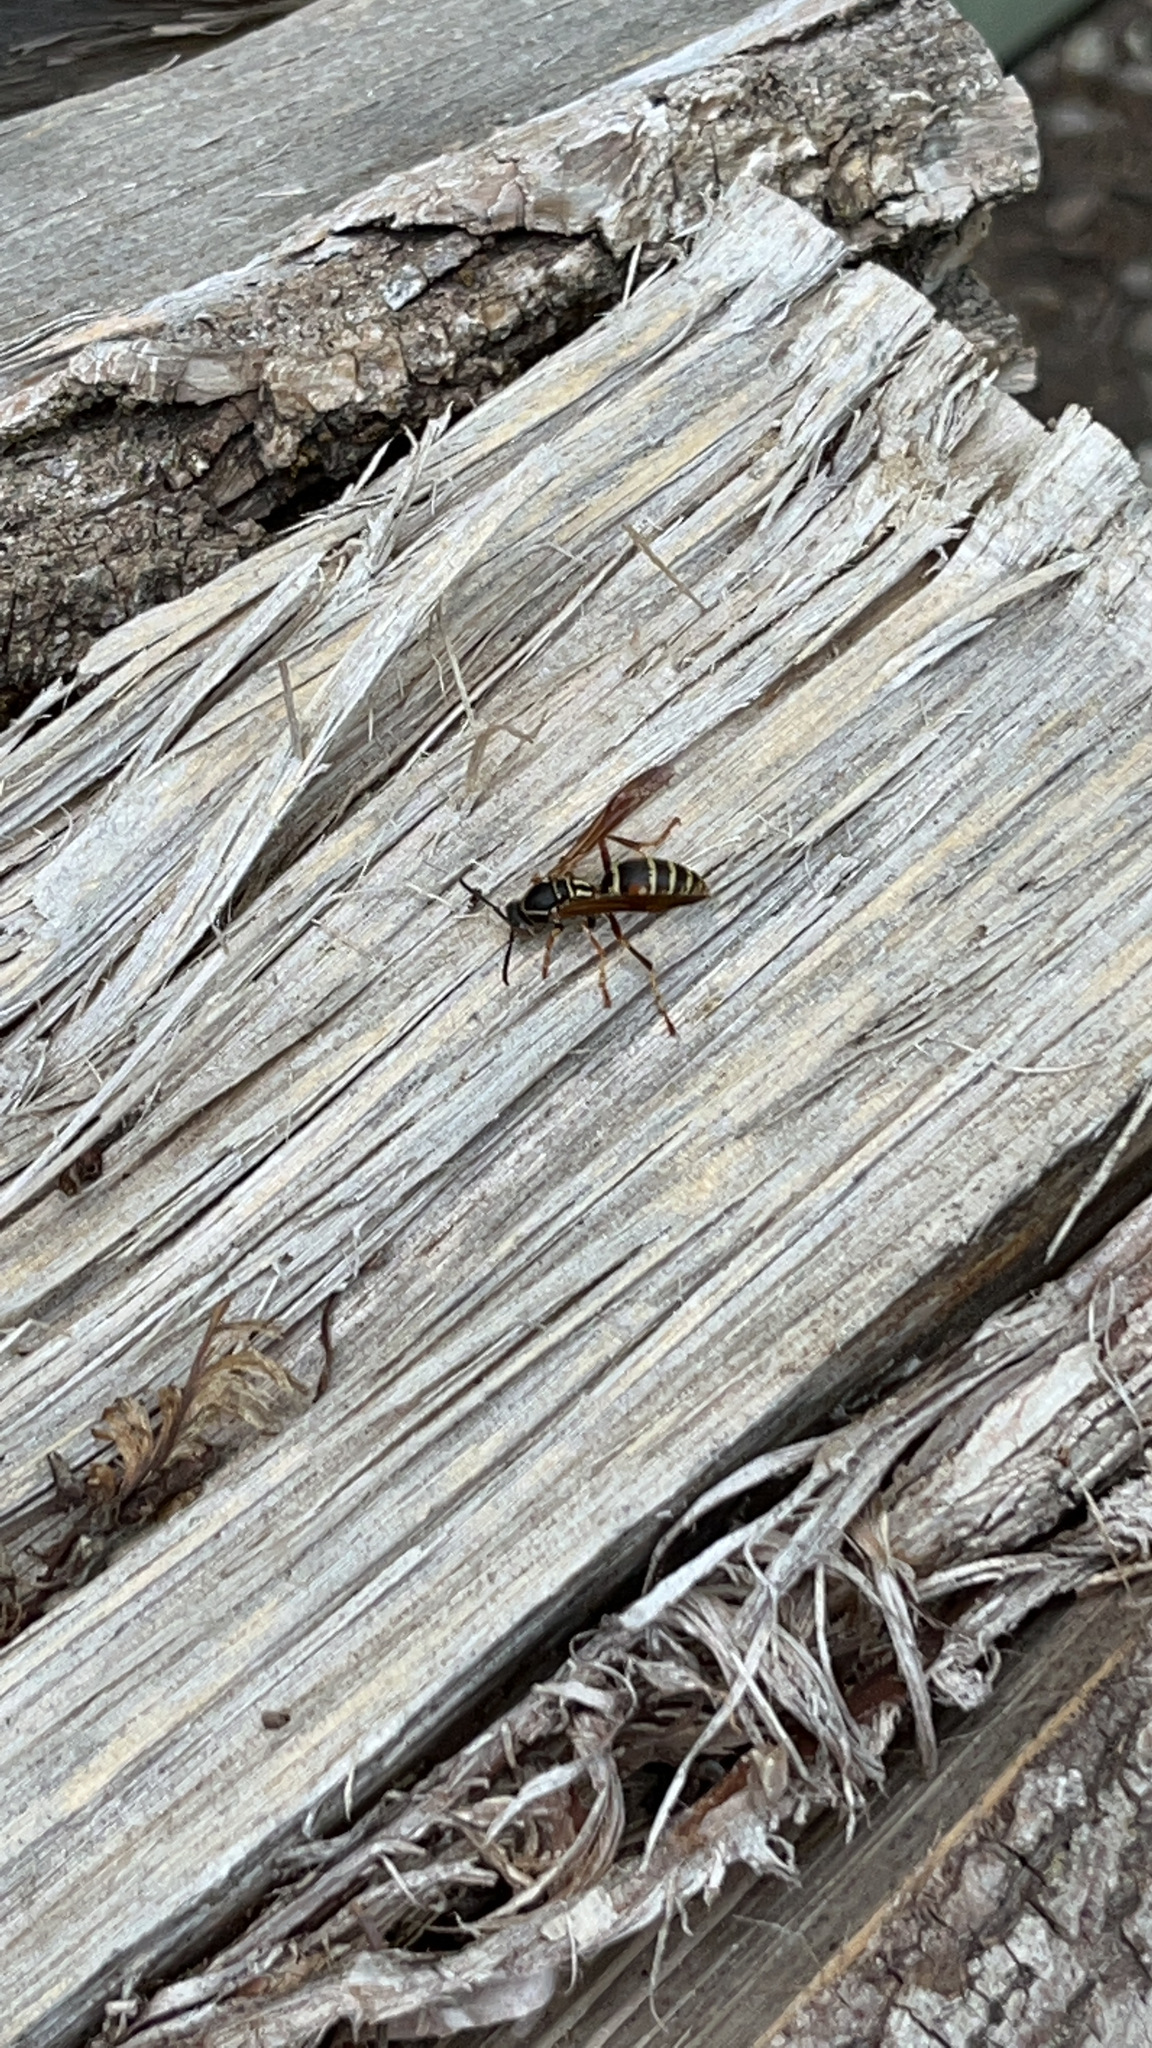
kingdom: Animalia
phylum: Arthropoda
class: Insecta
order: Hymenoptera
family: Eumenidae
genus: Polistes
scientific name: Polistes fuscatus
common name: Dark paper wasp
